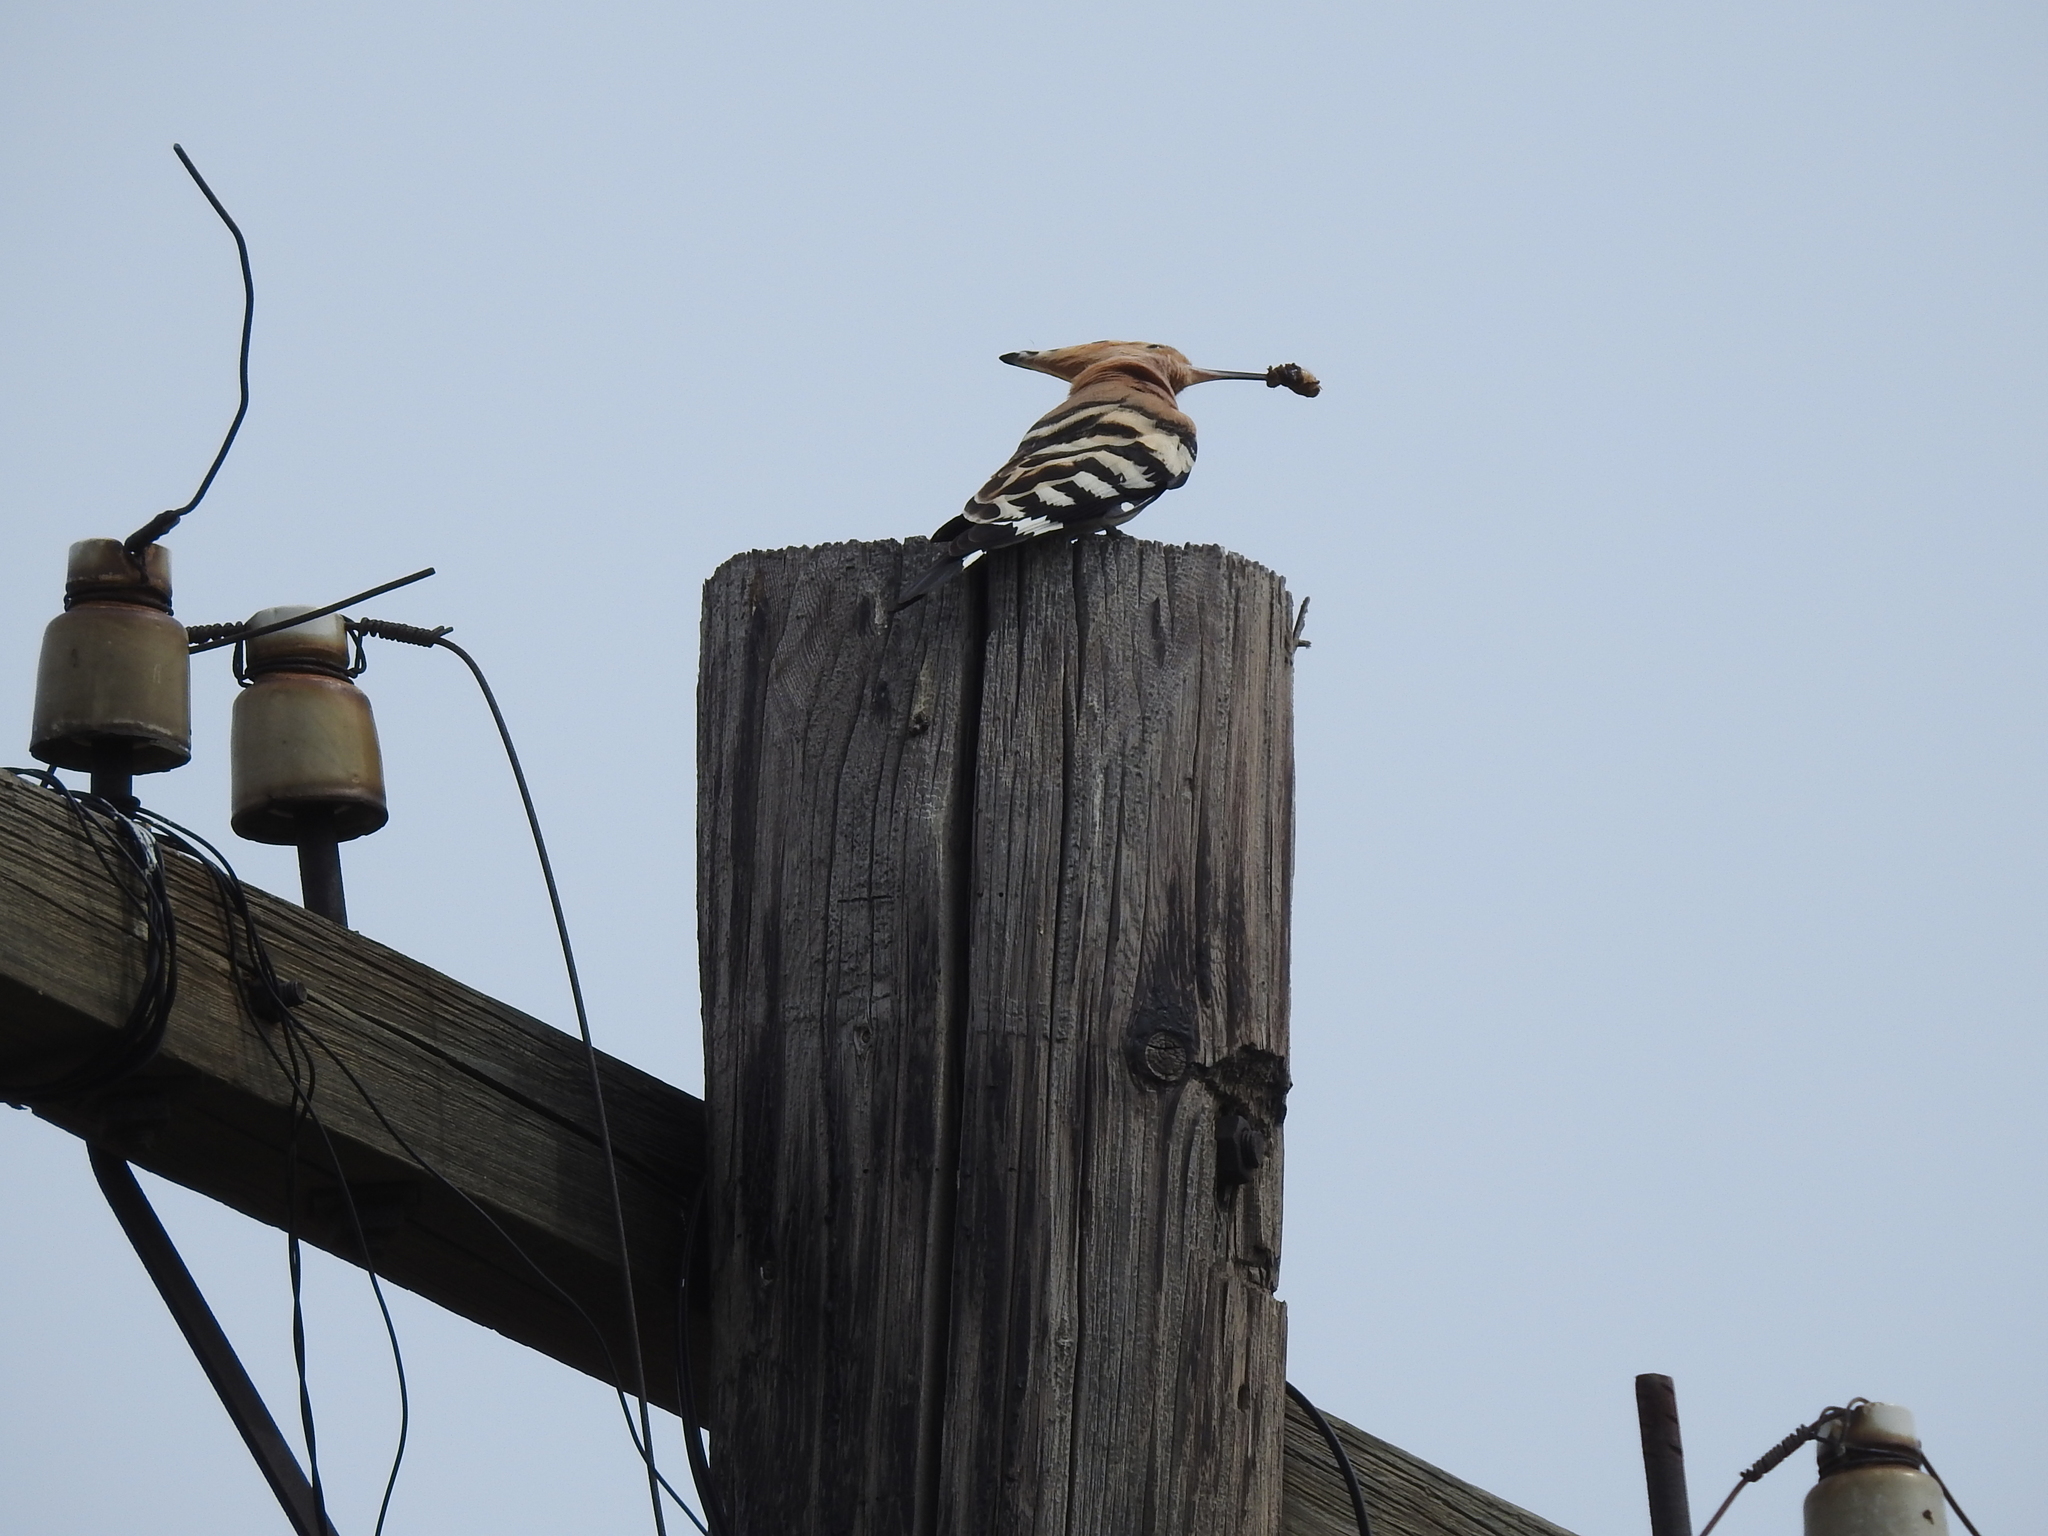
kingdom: Animalia
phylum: Chordata
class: Aves
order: Bucerotiformes
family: Upupidae
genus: Upupa
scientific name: Upupa epops
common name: Eurasian hoopoe
